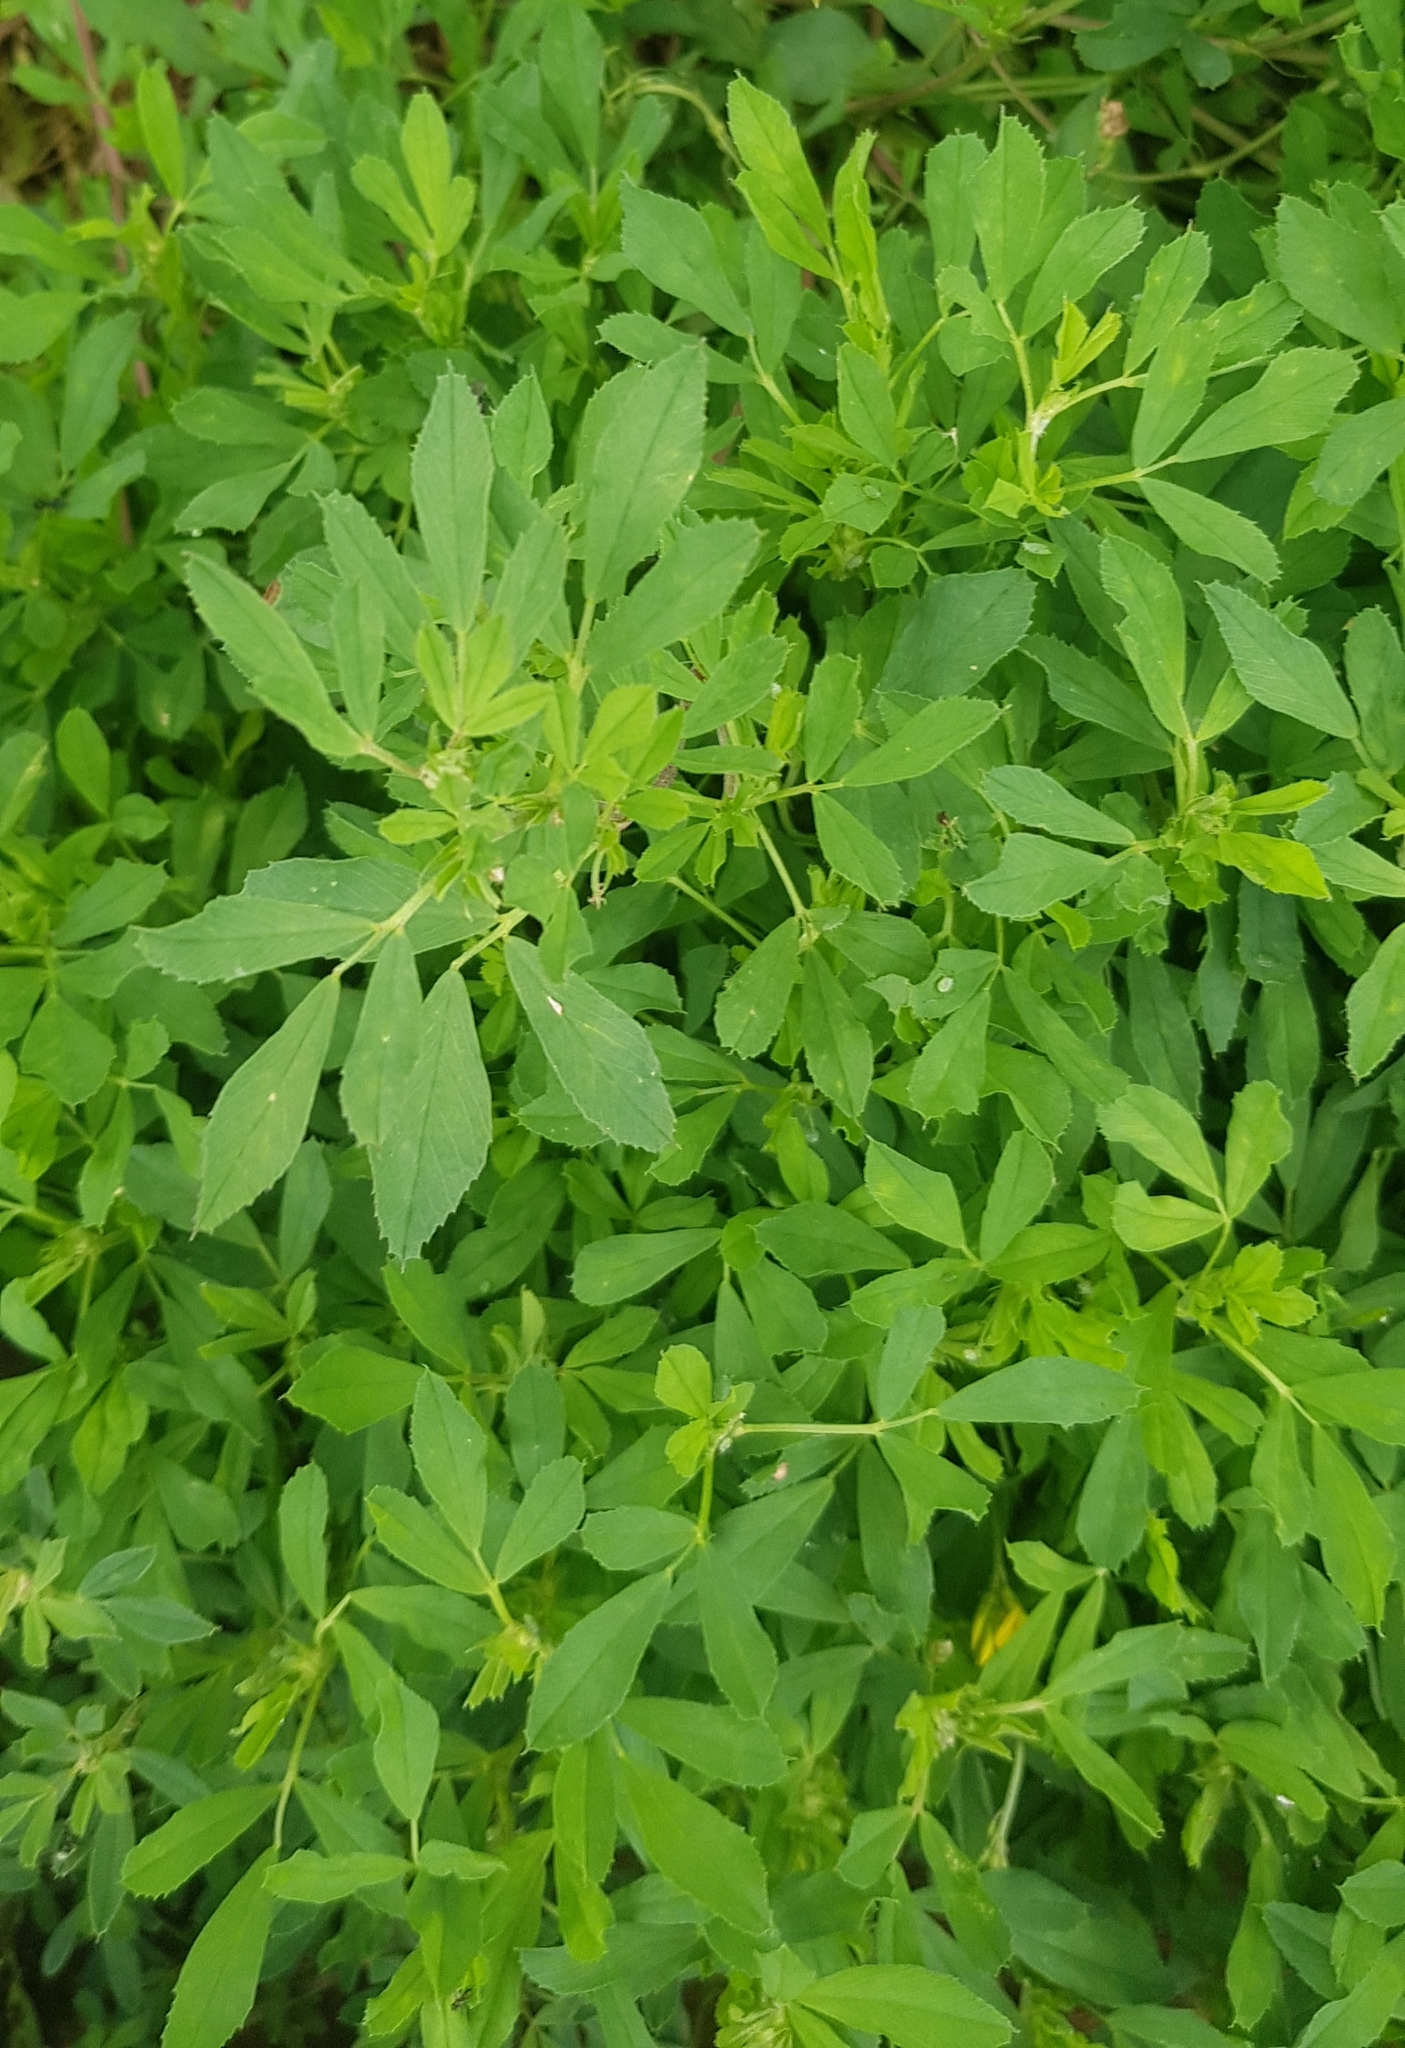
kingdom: Plantae
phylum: Tracheophyta
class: Magnoliopsida
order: Fabales
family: Fabaceae
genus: Medicago
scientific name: Medicago sativa
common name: Alfalfa
